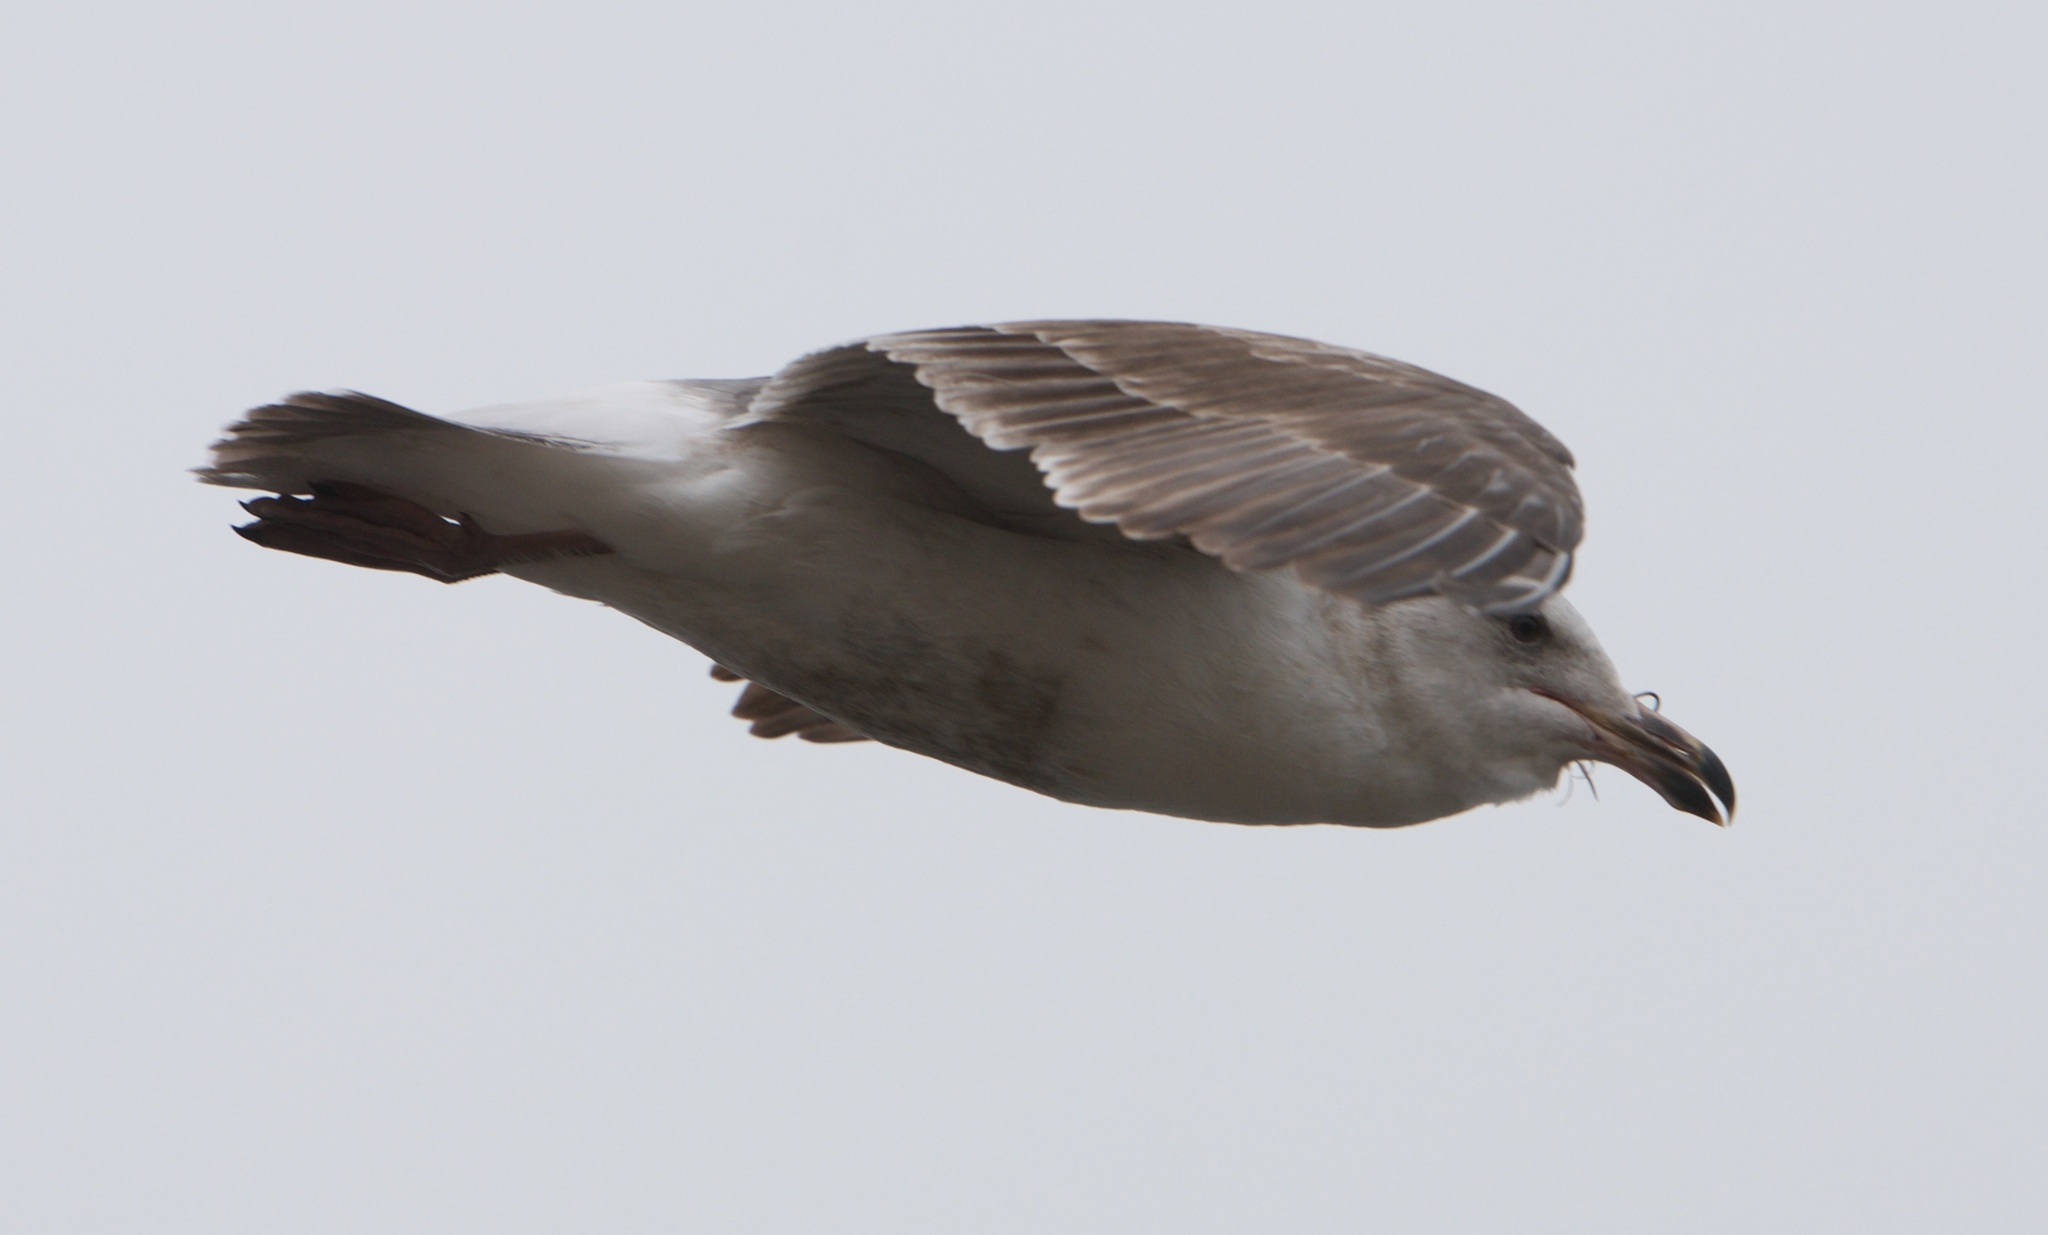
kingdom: Animalia
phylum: Chordata
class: Aves
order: Charadriiformes
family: Laridae
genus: Larus
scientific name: Larus occidentalis
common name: Western gull
